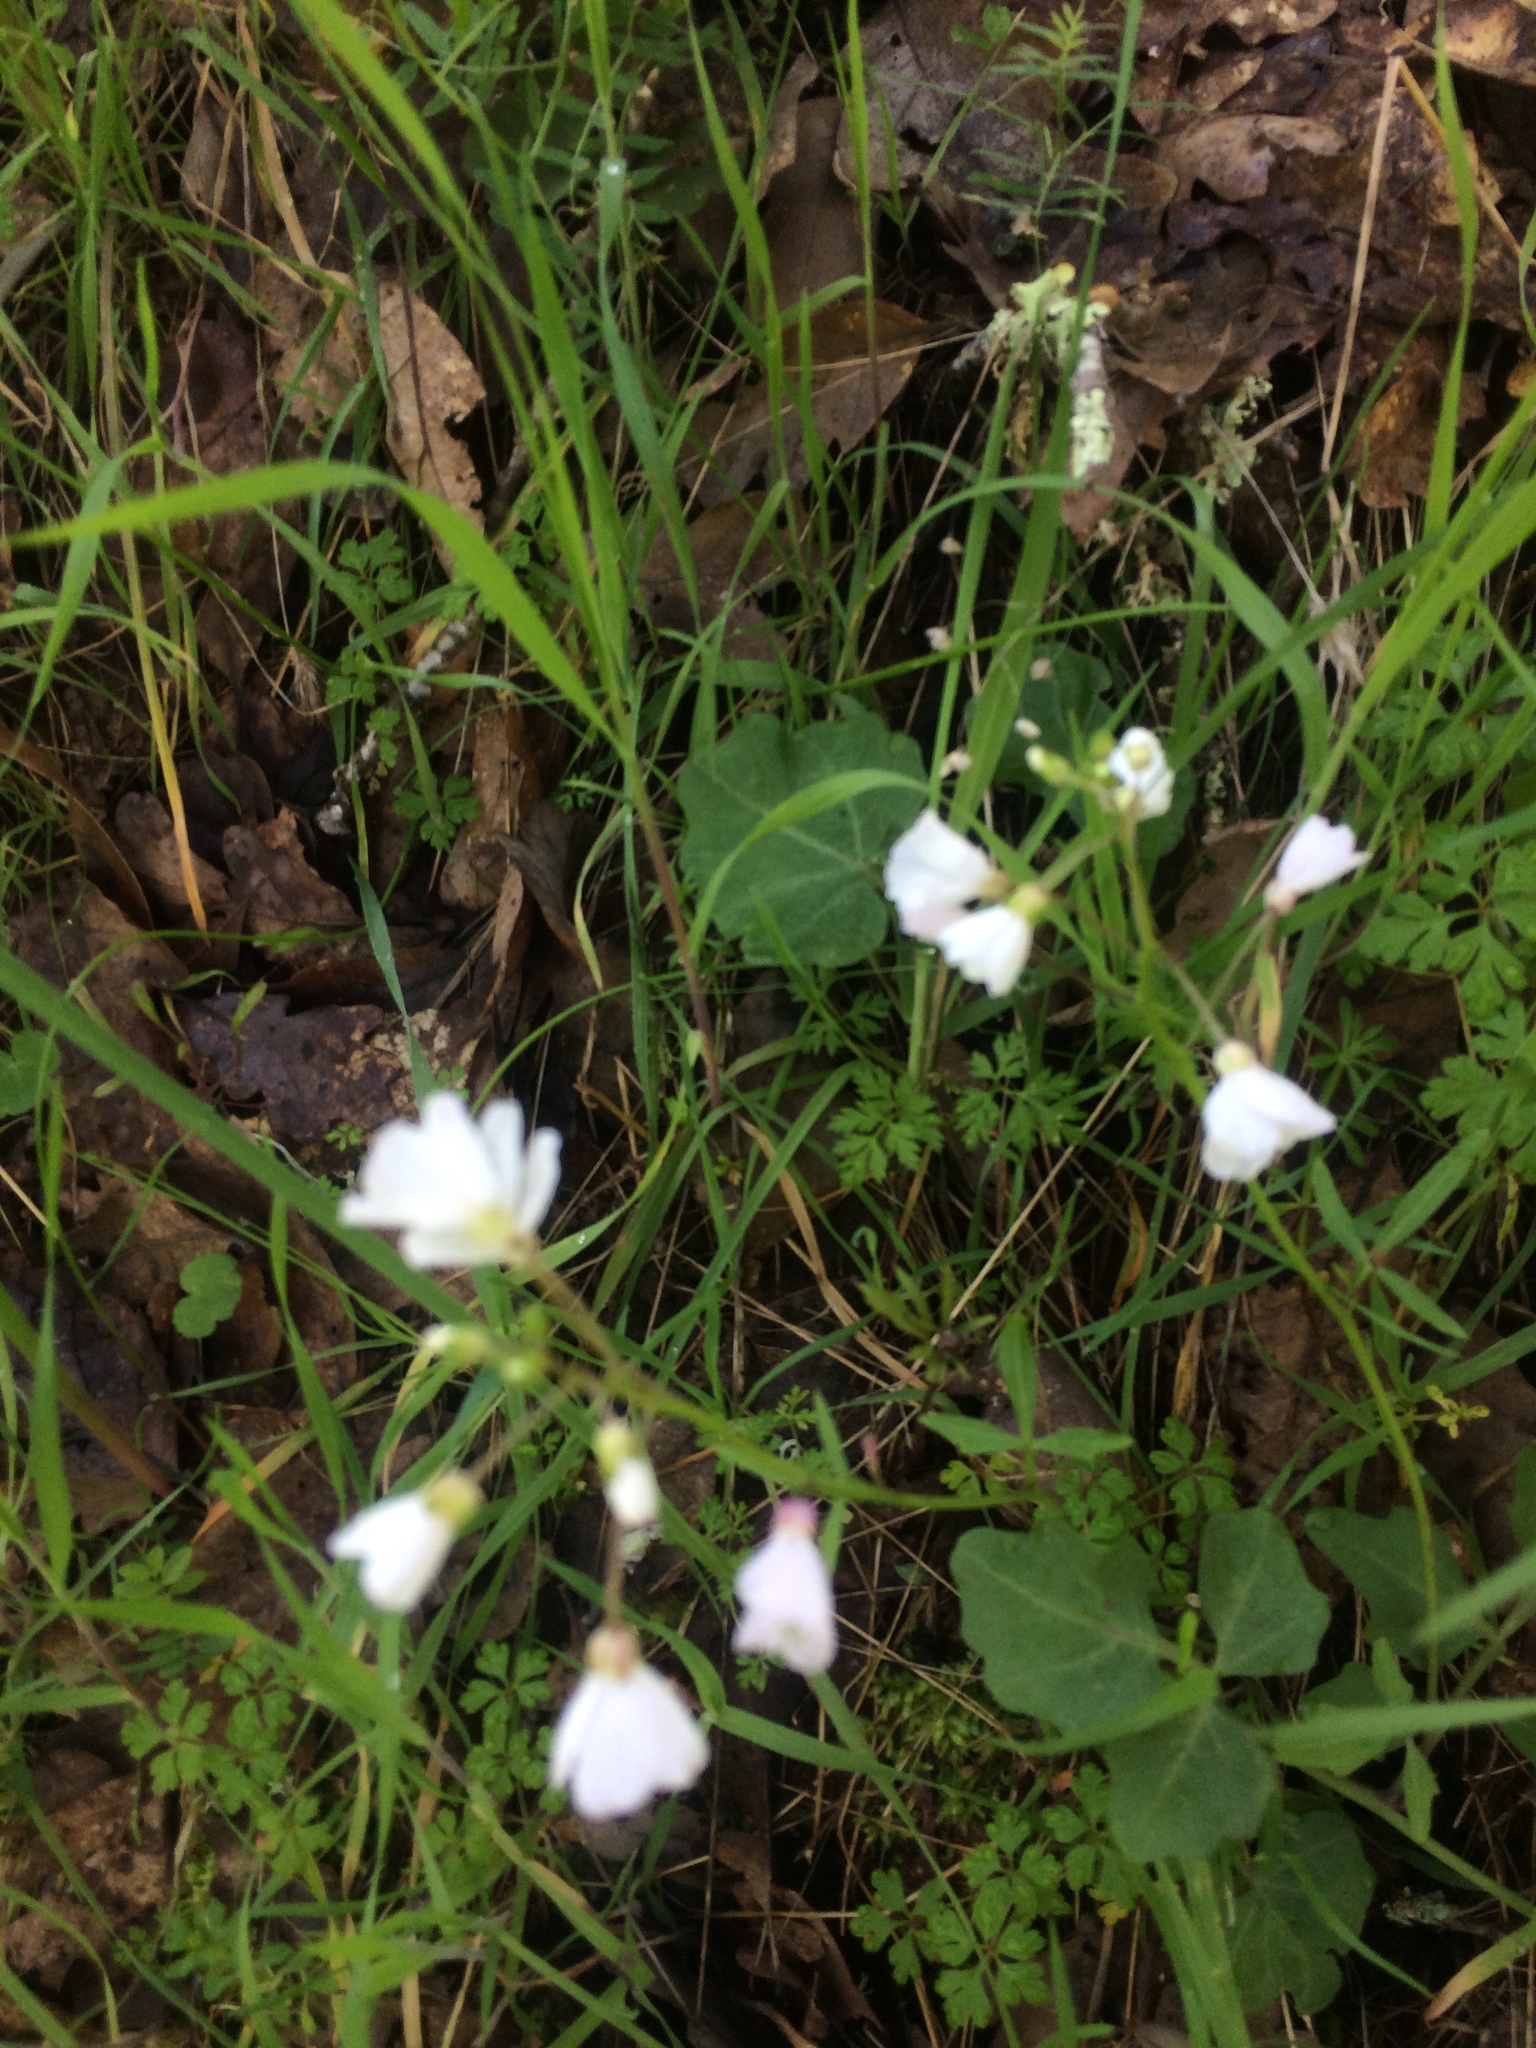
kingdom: Plantae
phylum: Tracheophyta
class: Magnoliopsida
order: Brassicales
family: Brassicaceae
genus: Cardamine
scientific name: Cardamine californica
